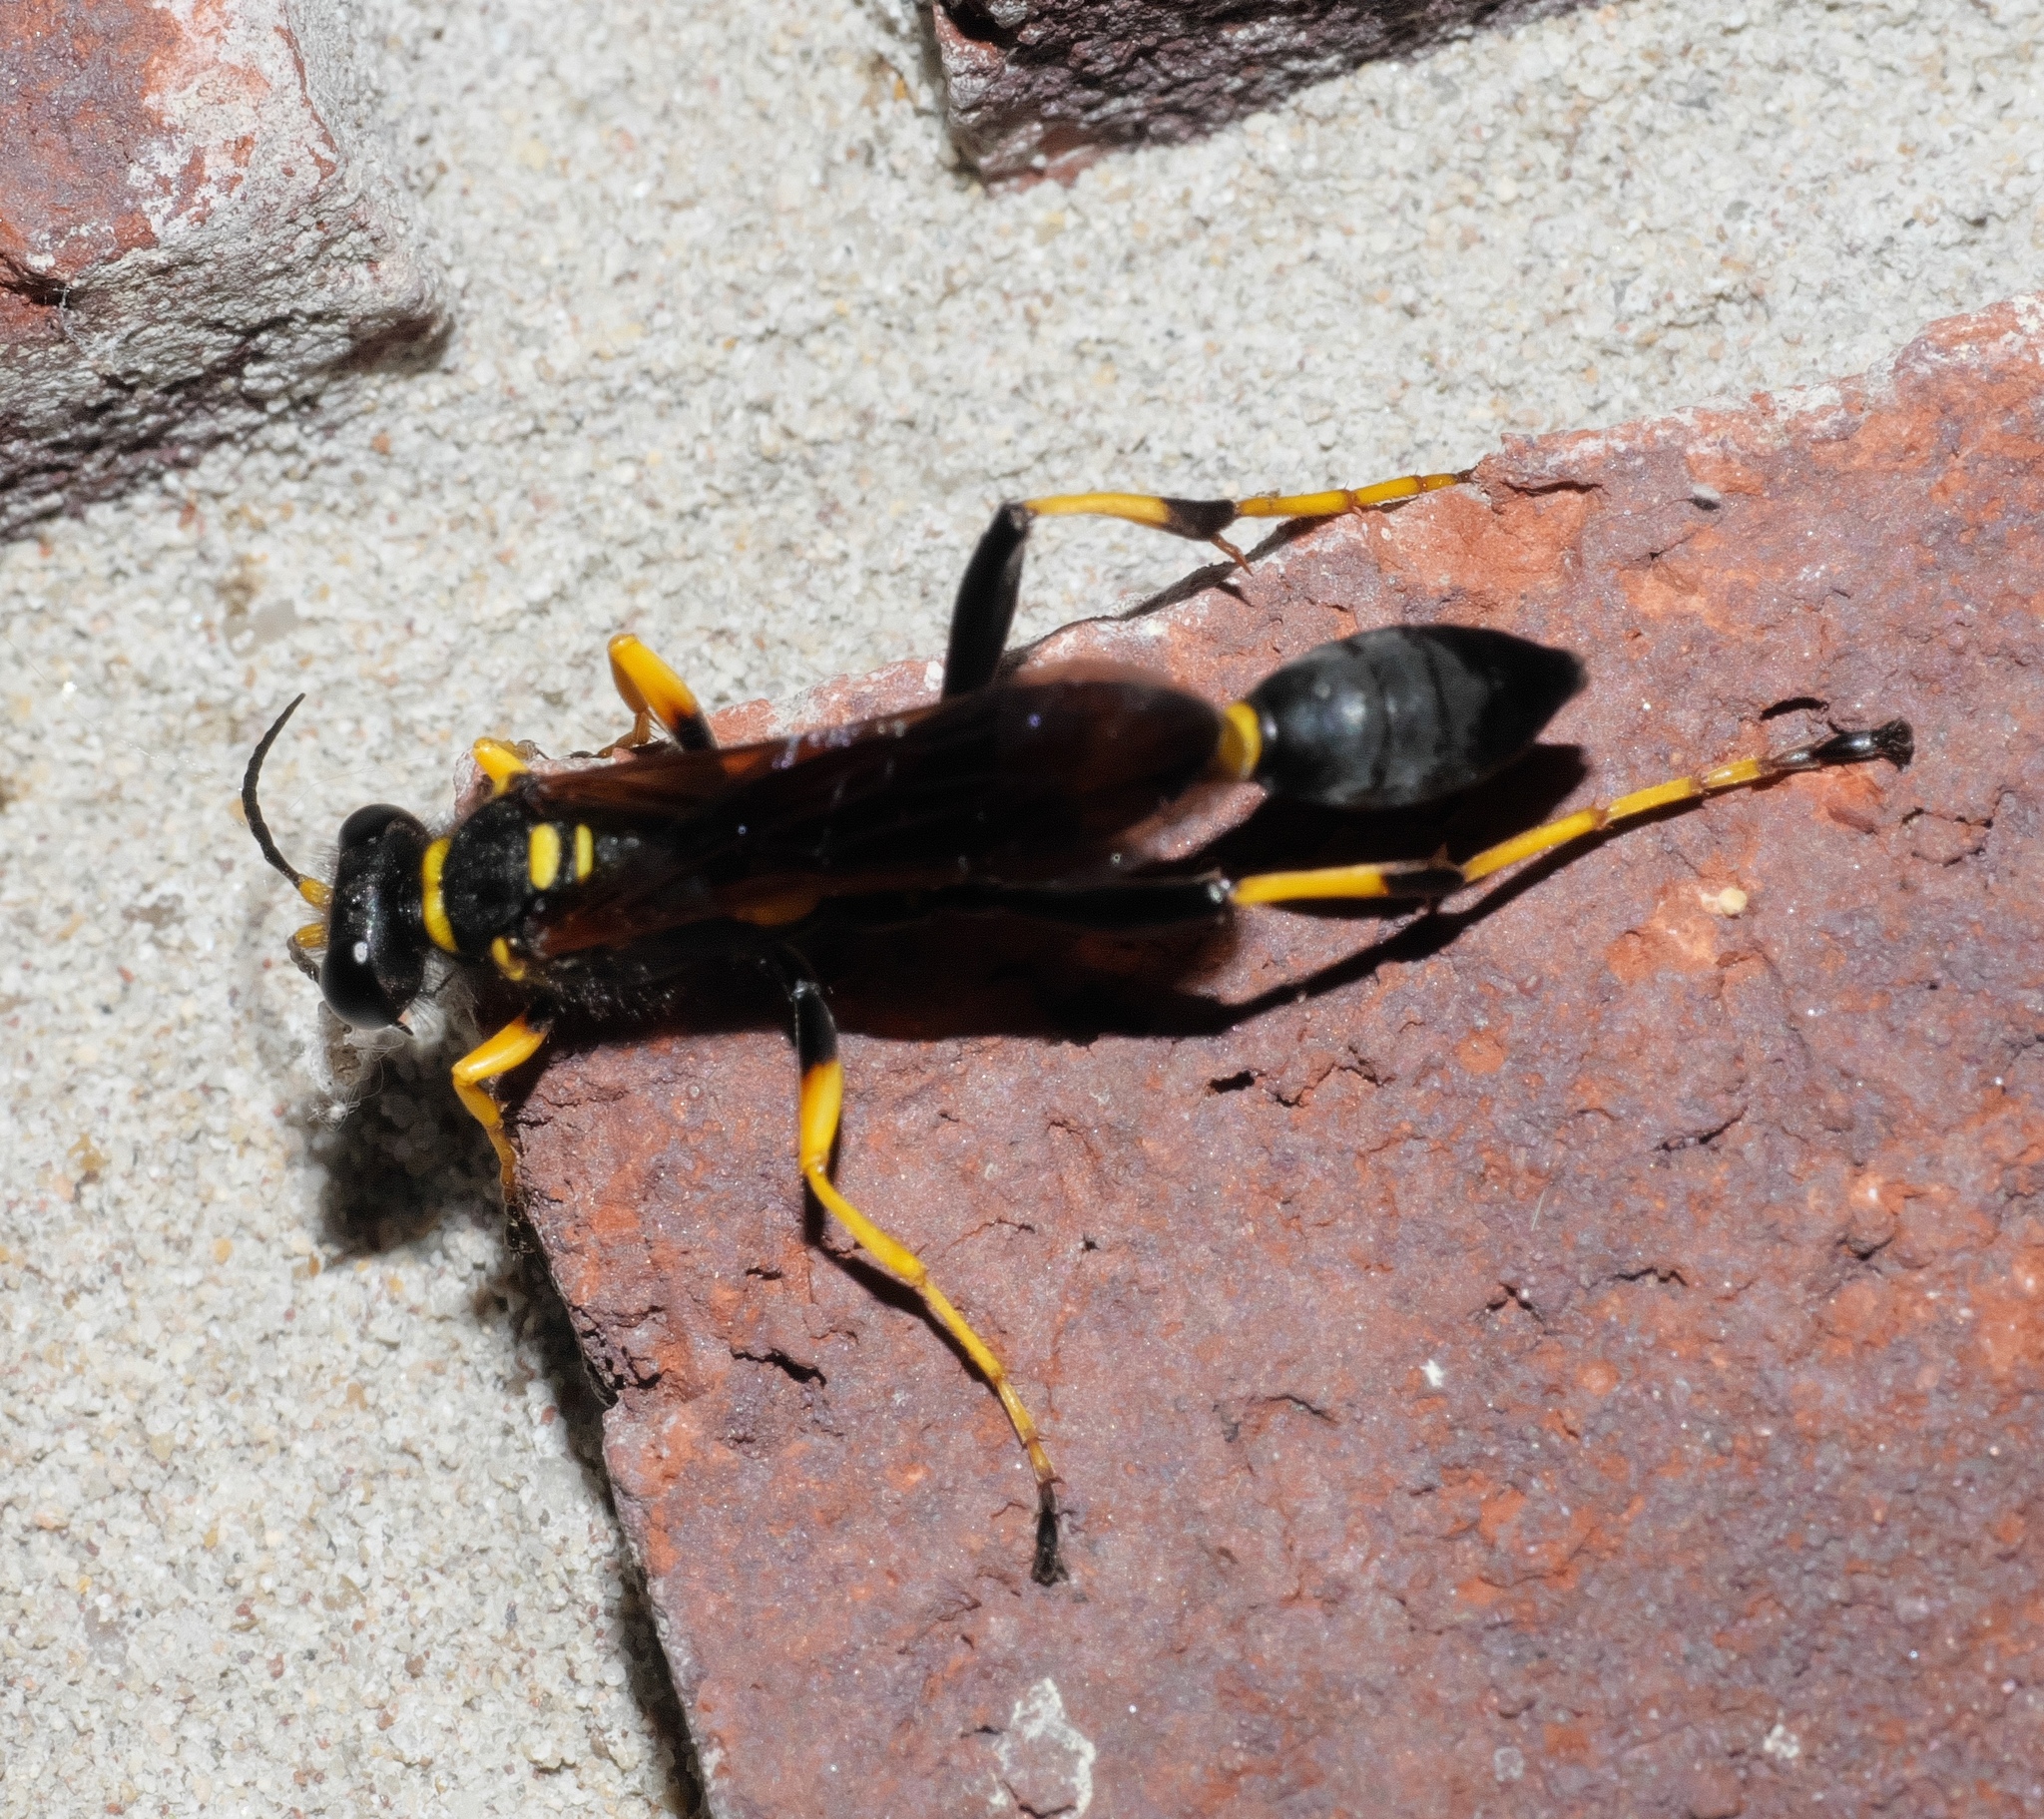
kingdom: Animalia
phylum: Arthropoda
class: Insecta
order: Hymenoptera
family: Sphecidae
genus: Sceliphron
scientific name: Sceliphron caementarium
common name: Mud dauber
